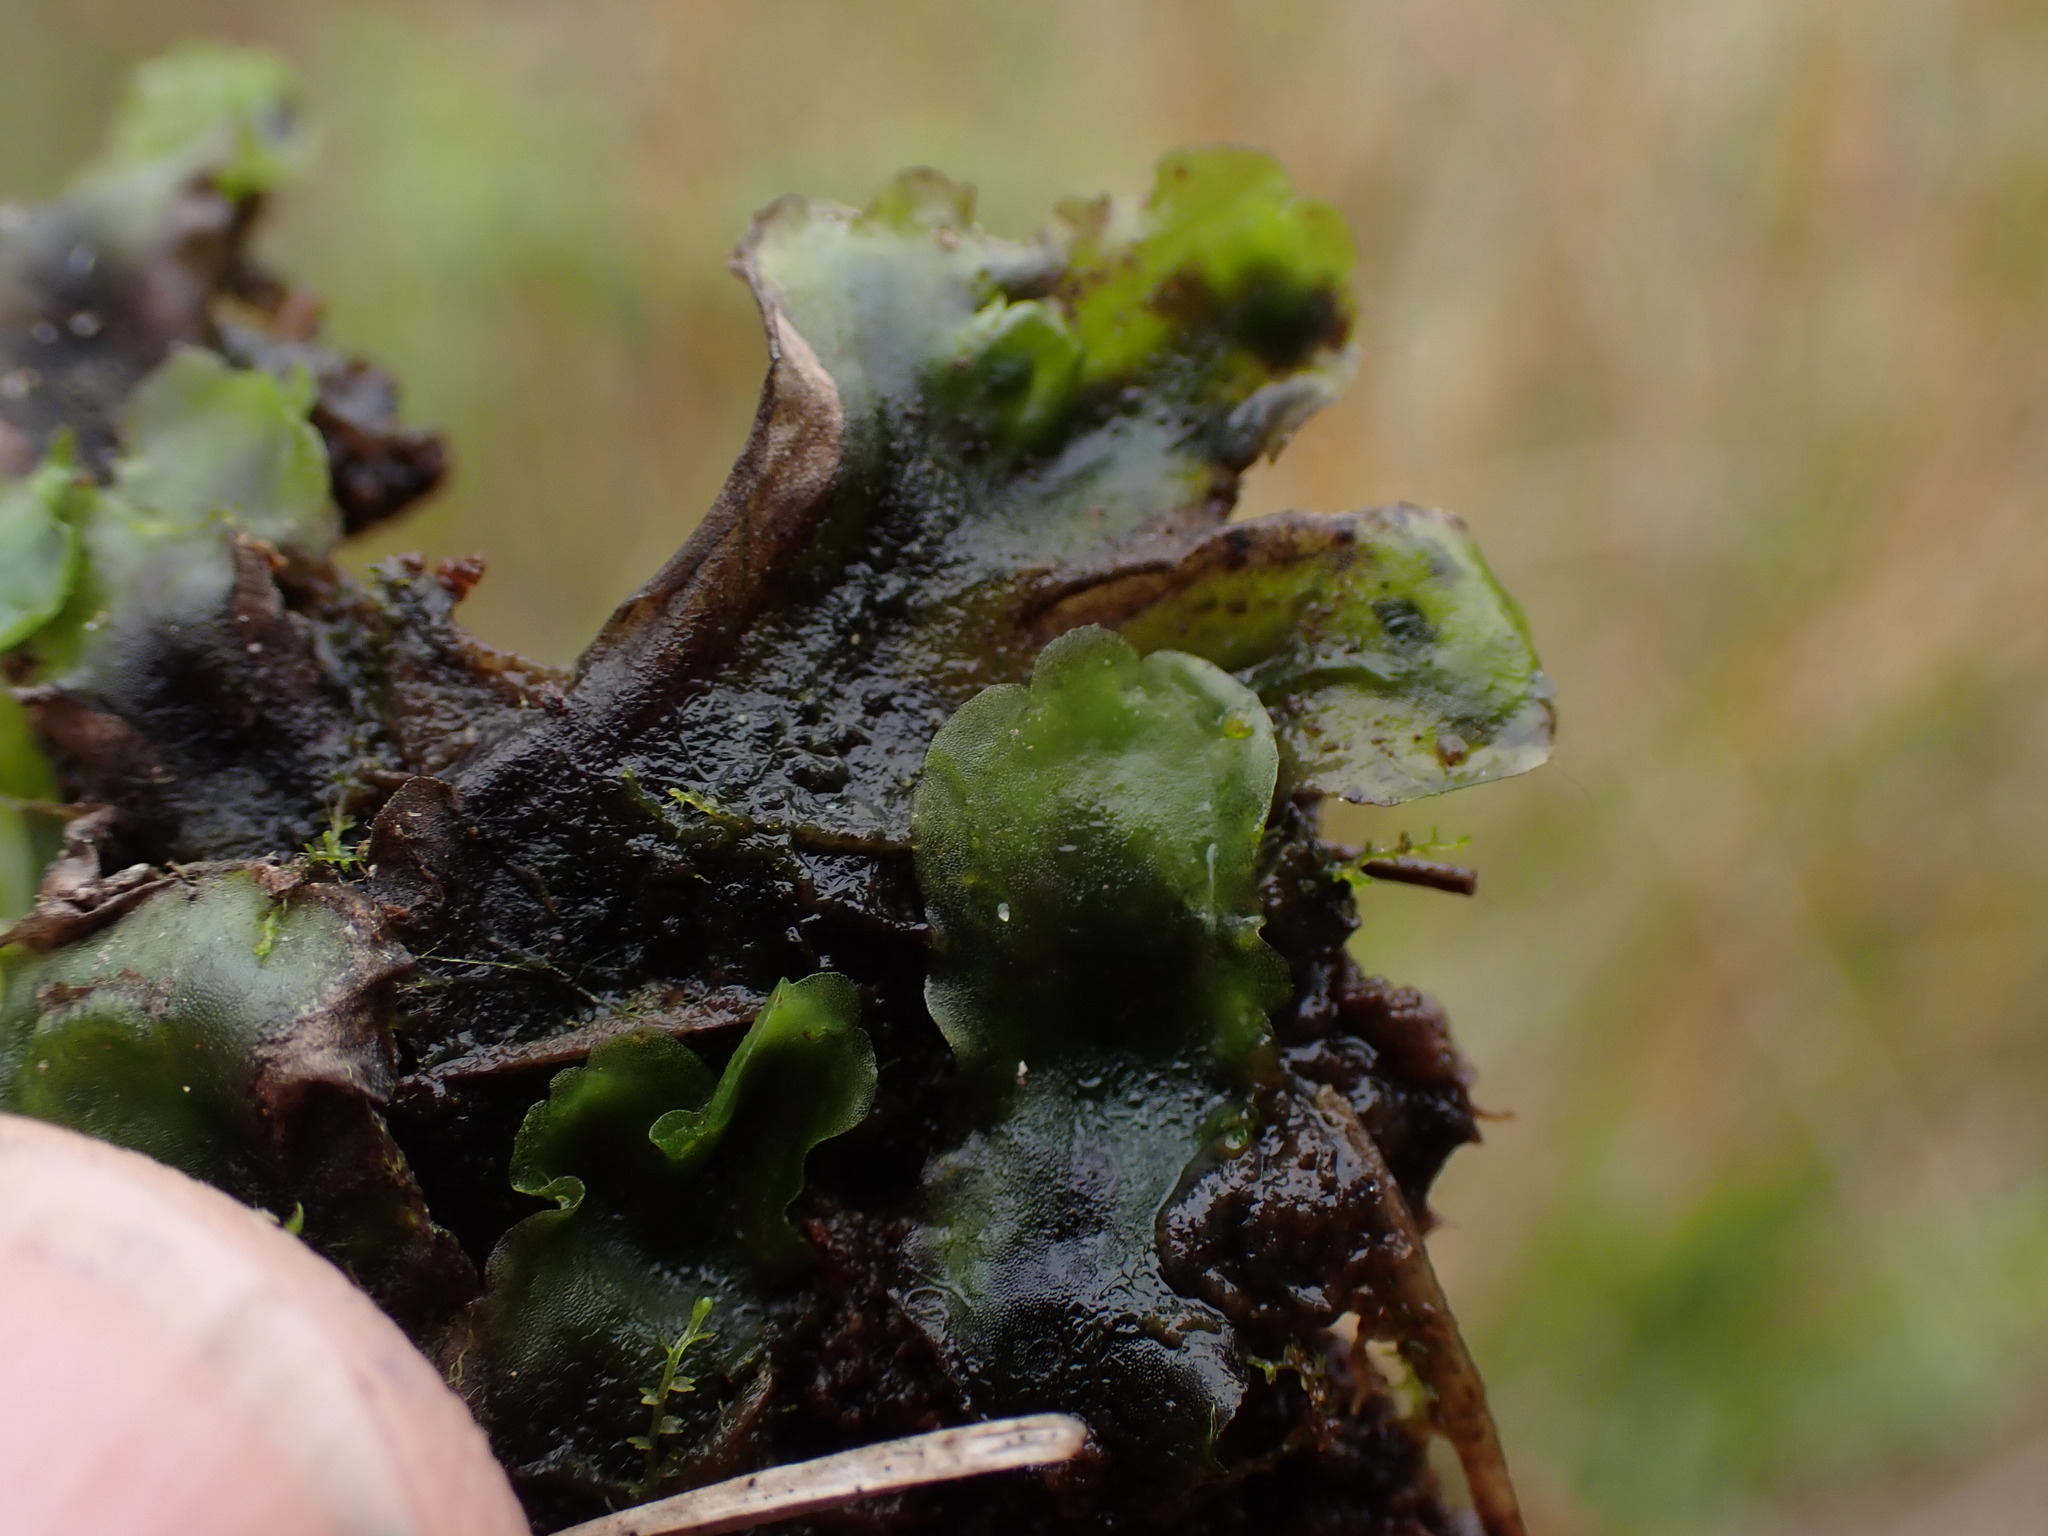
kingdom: Plantae
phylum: Marchantiophyta
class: Jungermanniopsida
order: Pelliales
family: Pelliaceae
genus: Pellia
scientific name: Pellia neesiana
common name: Nees  pellia
